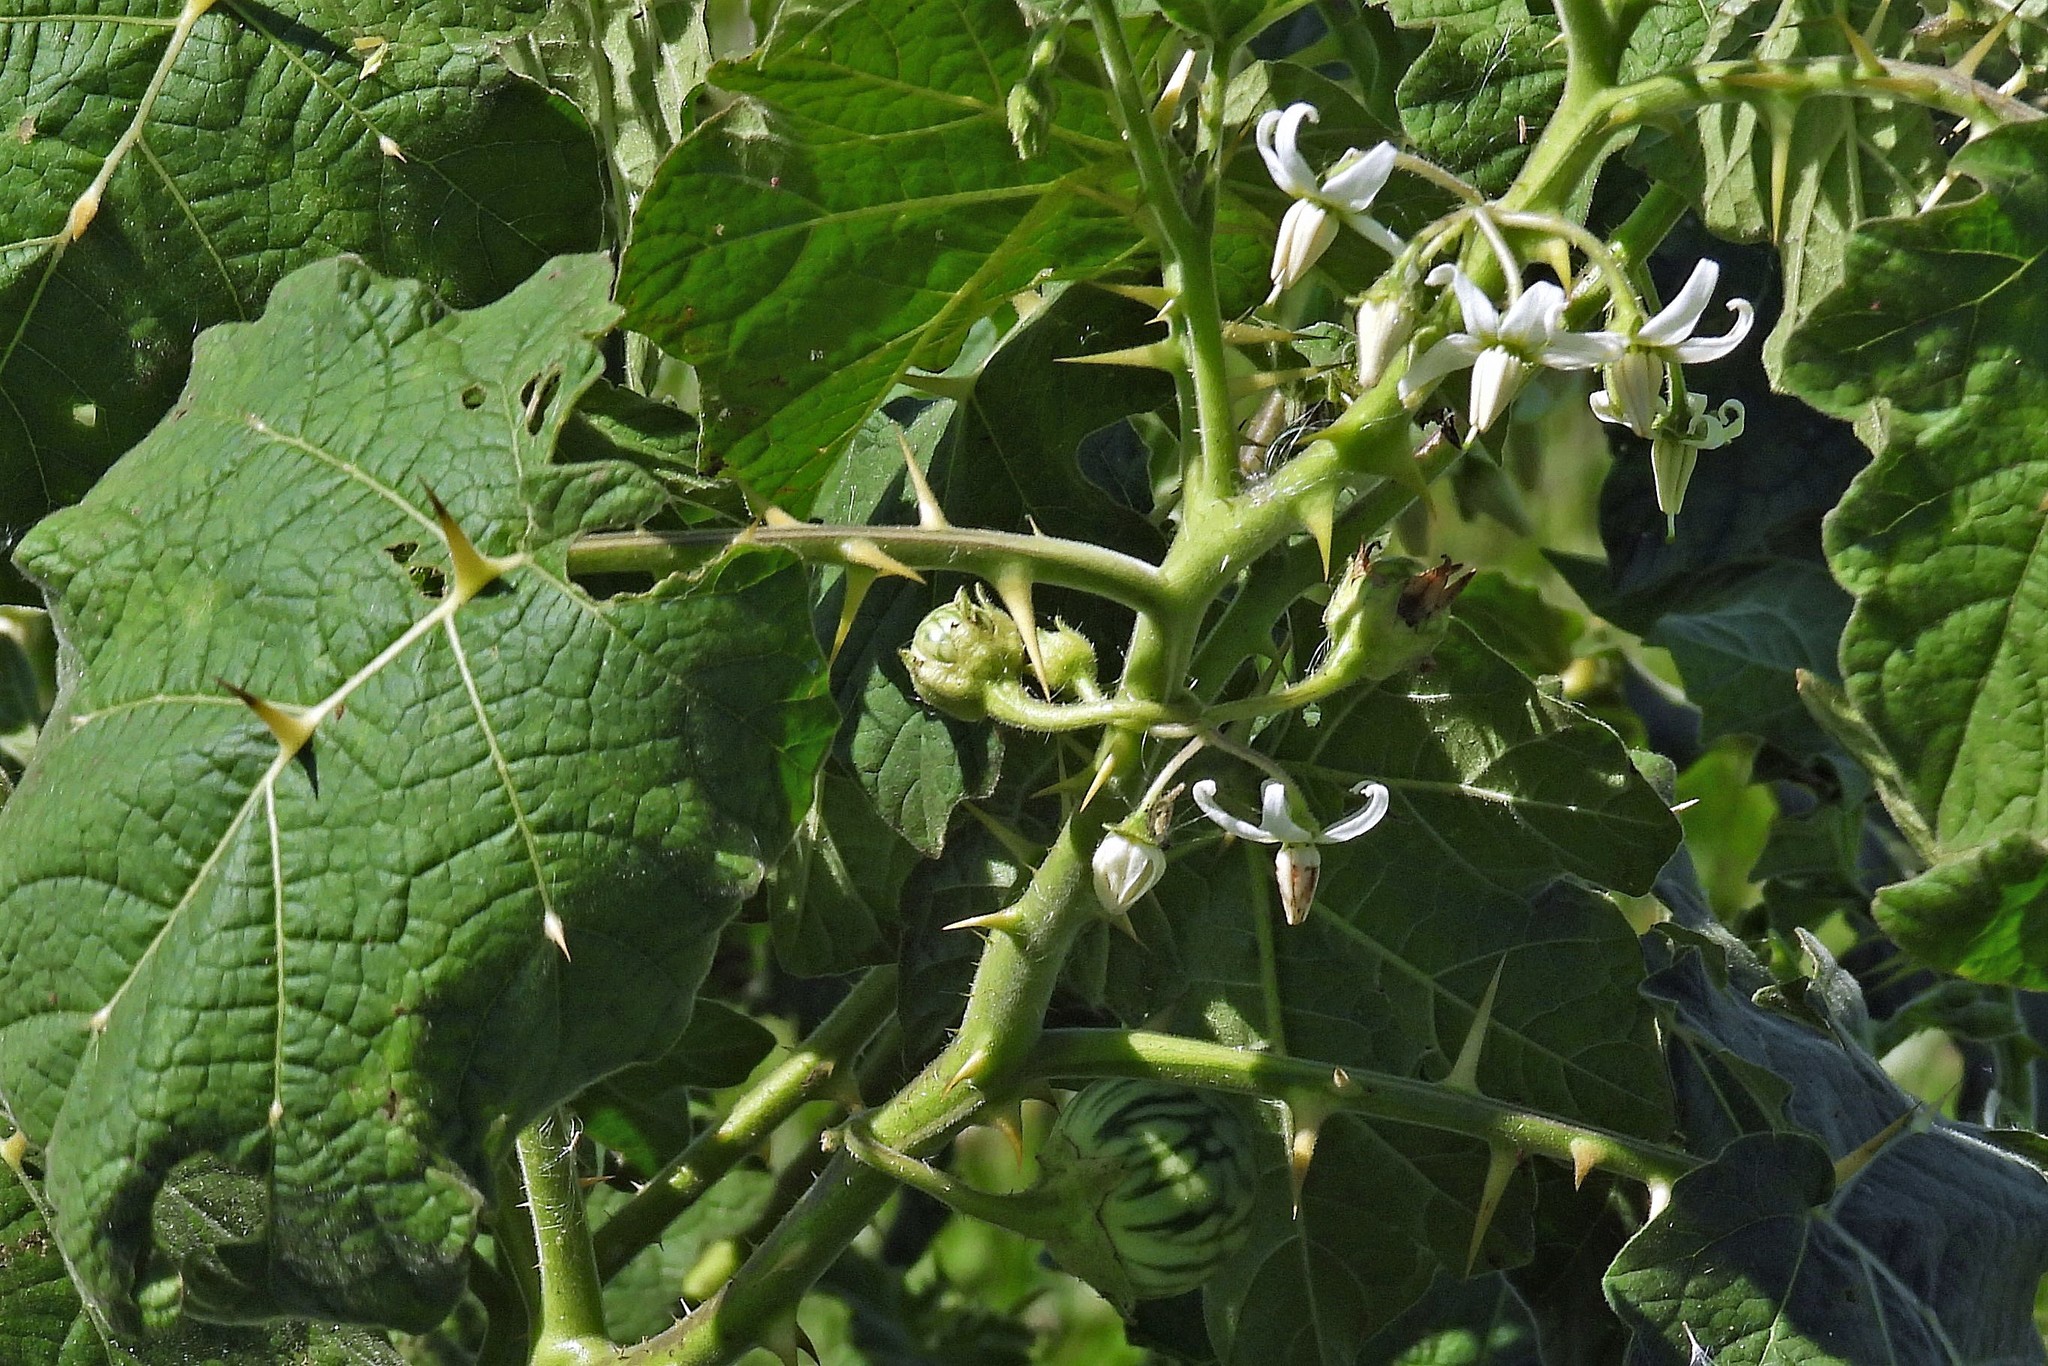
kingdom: Plantae
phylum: Tracheophyta
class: Magnoliopsida
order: Solanales
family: Solanaceae
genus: Solanum
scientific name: Solanum viarum
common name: Tropical soda apple
